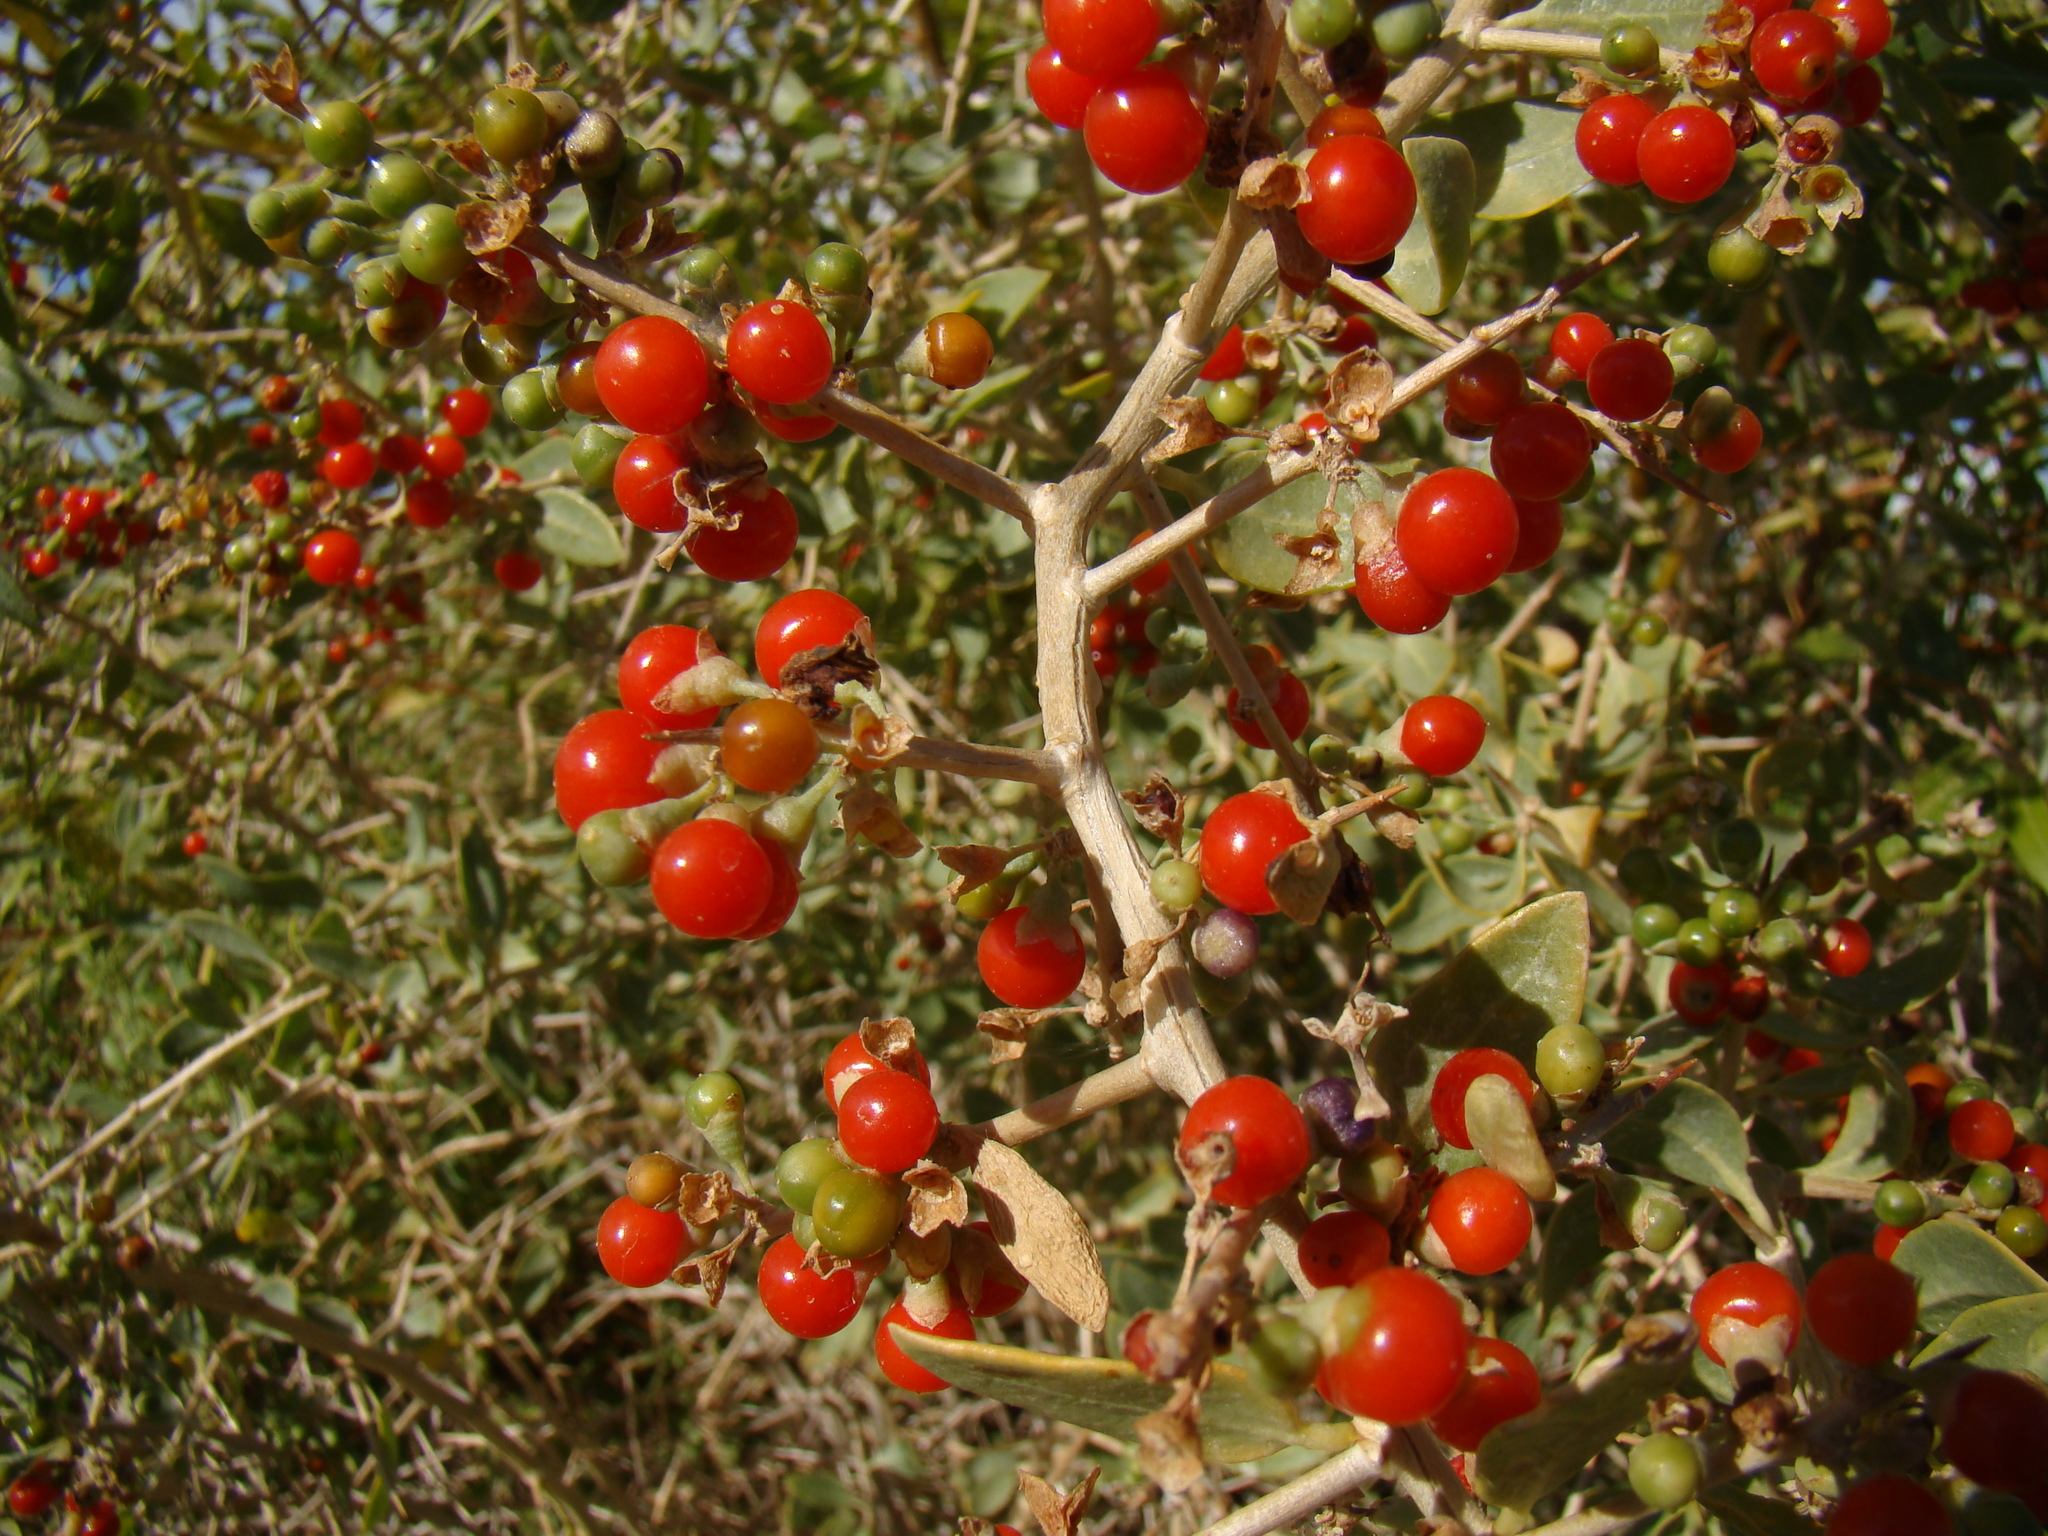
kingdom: Plantae
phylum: Tracheophyta
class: Magnoliopsida
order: Solanales
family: Solanaceae
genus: Lycium
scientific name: Lycium dasystemum
